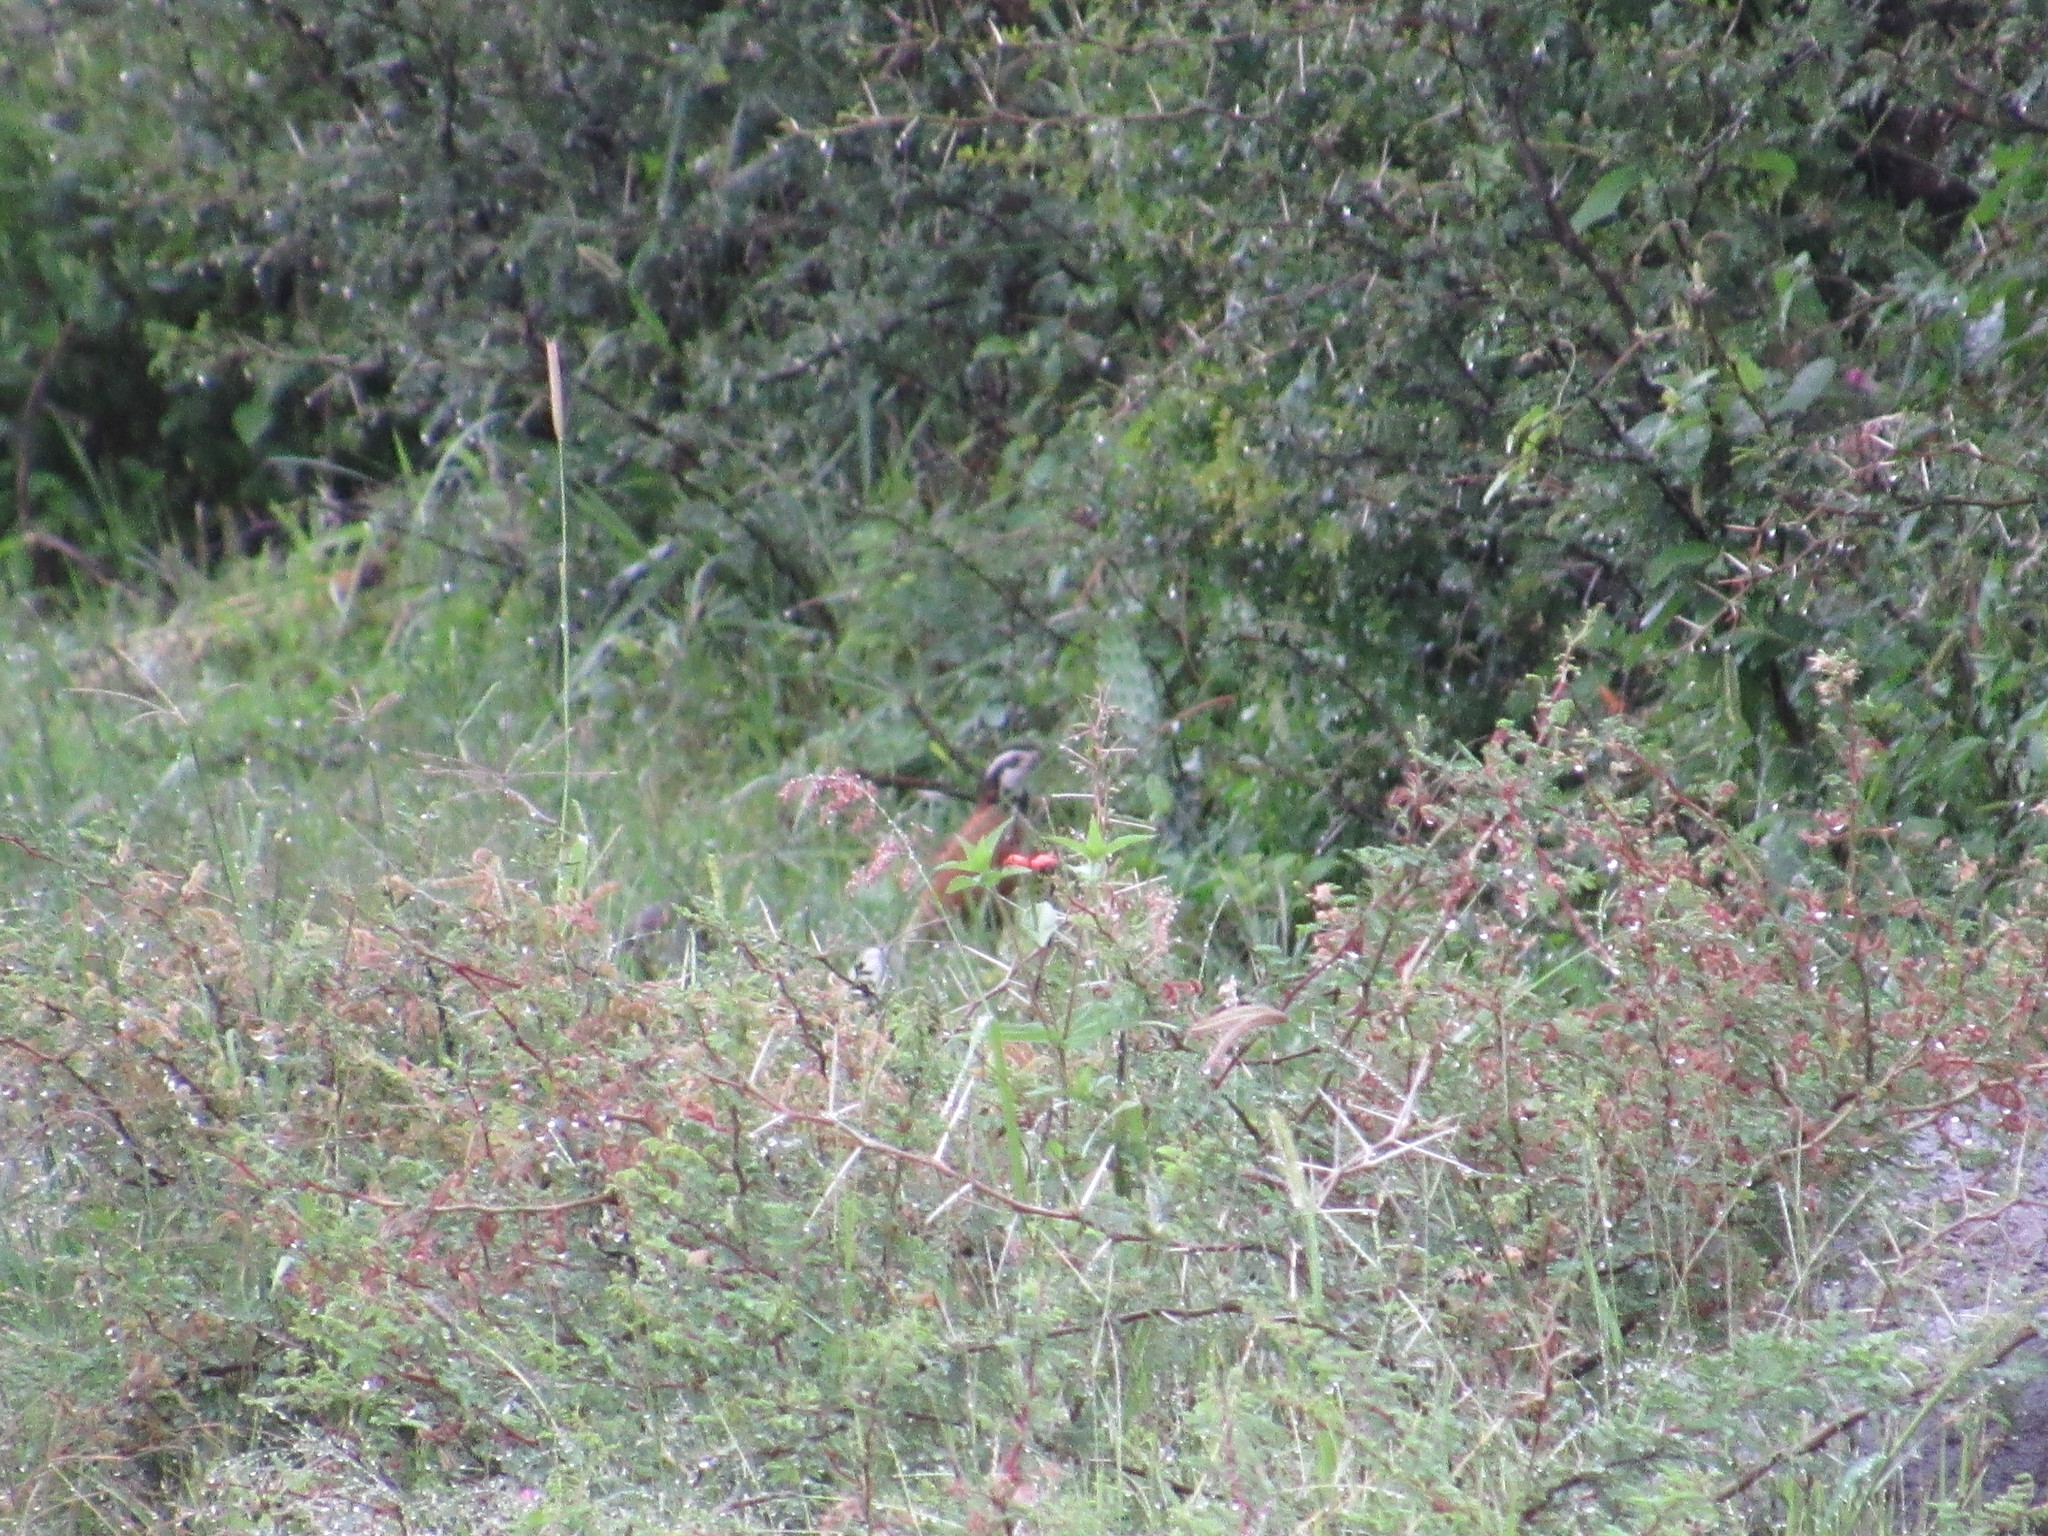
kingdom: Animalia
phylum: Chordata
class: Aves
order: Galliformes
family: Odontophoridae
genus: Colinus
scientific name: Colinus virginianus
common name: Northern bobwhite
